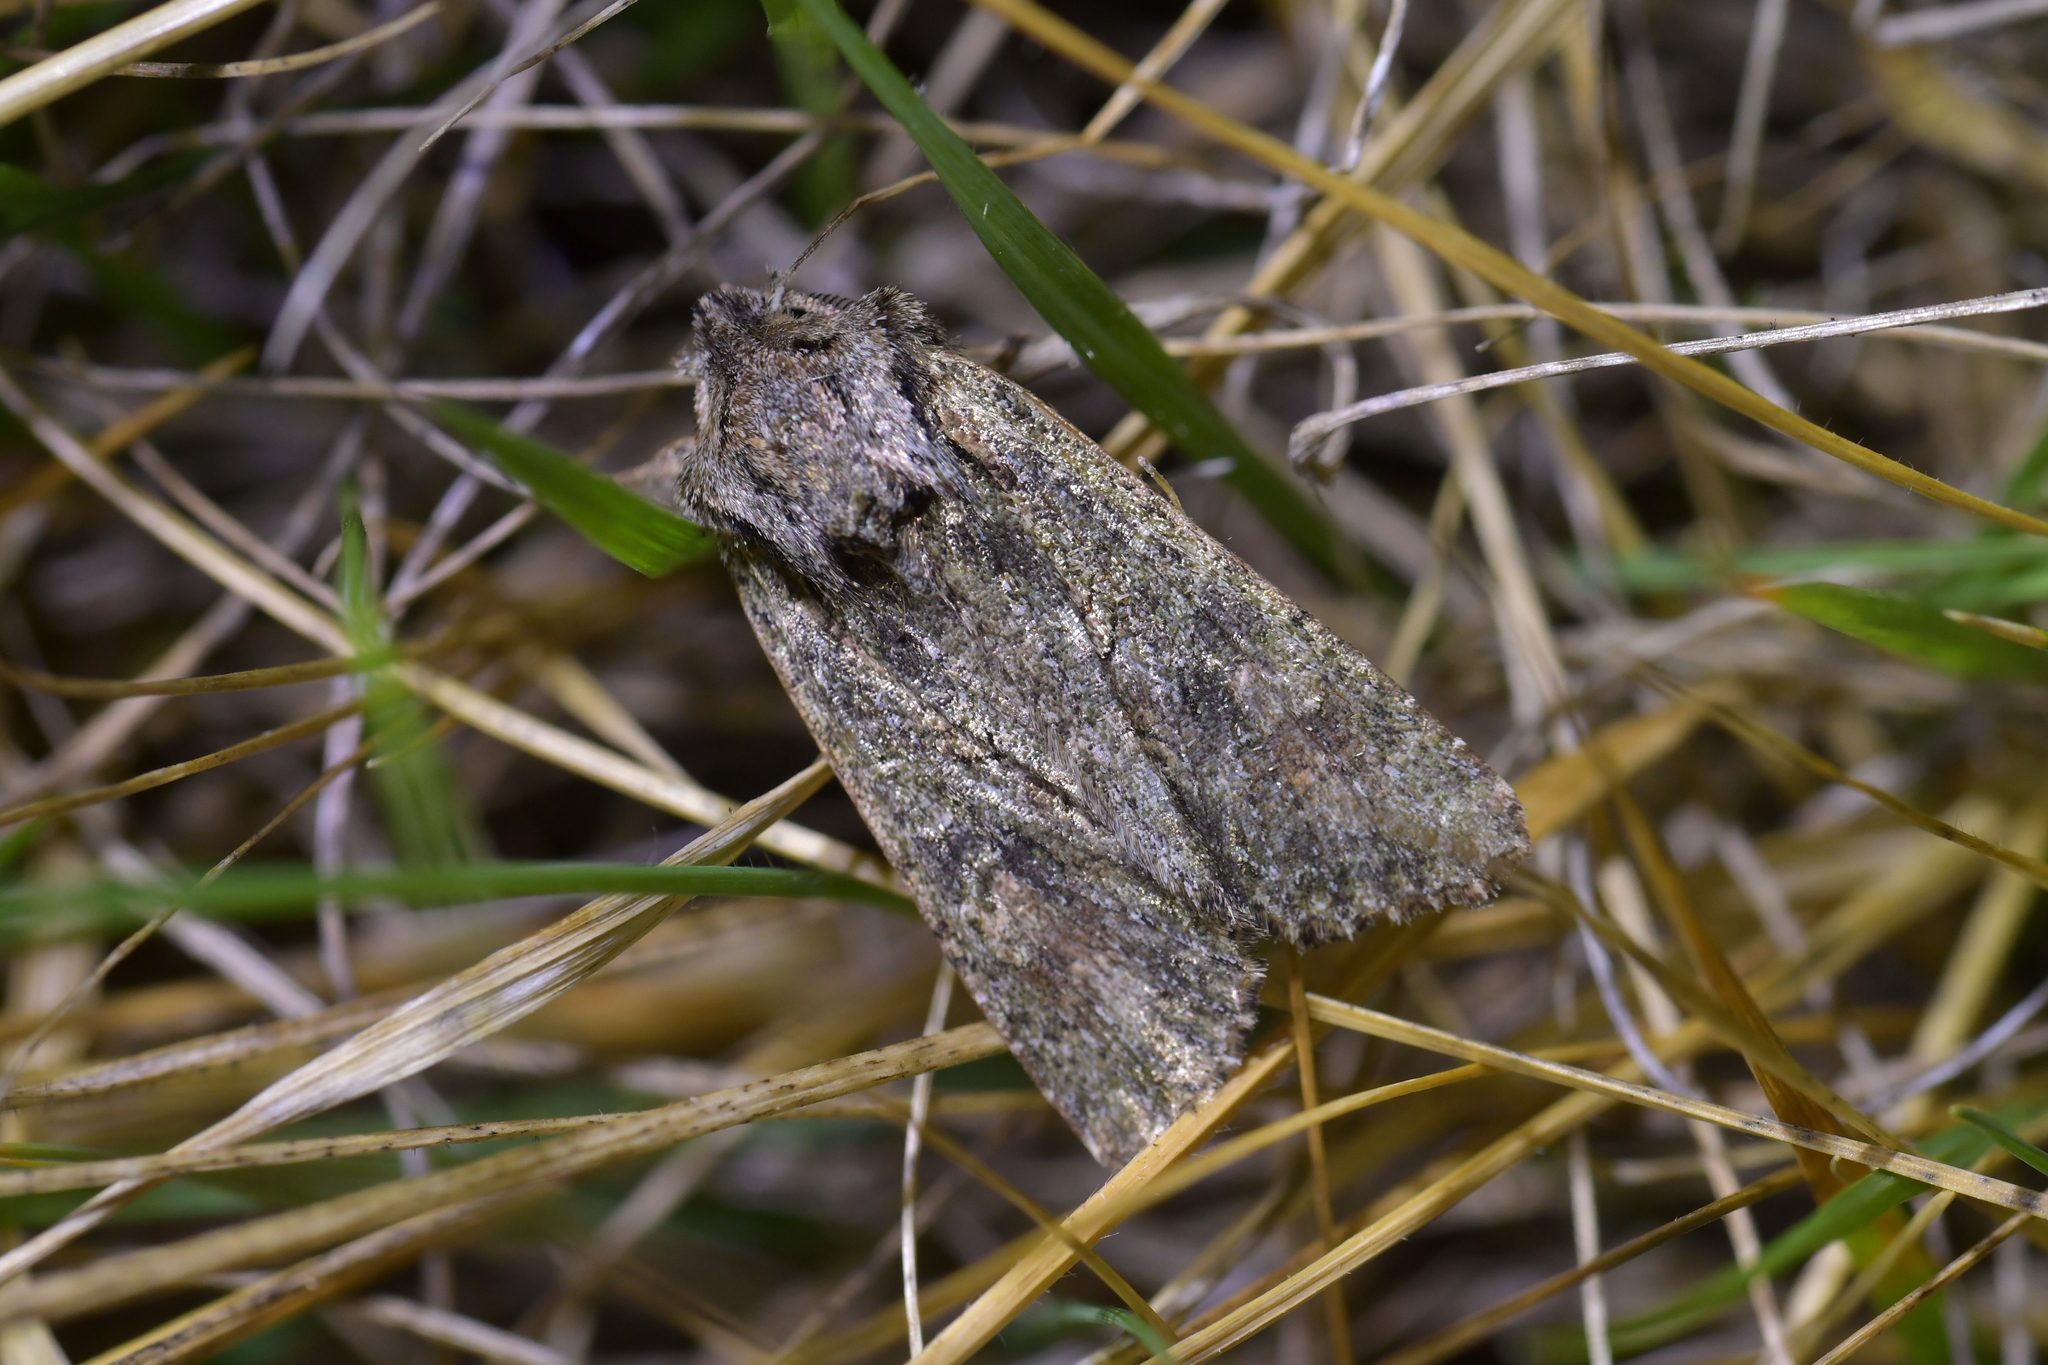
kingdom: Animalia
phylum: Arthropoda
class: Insecta
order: Lepidoptera
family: Noctuidae
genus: Ichneutica
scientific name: Ichneutica mutans
